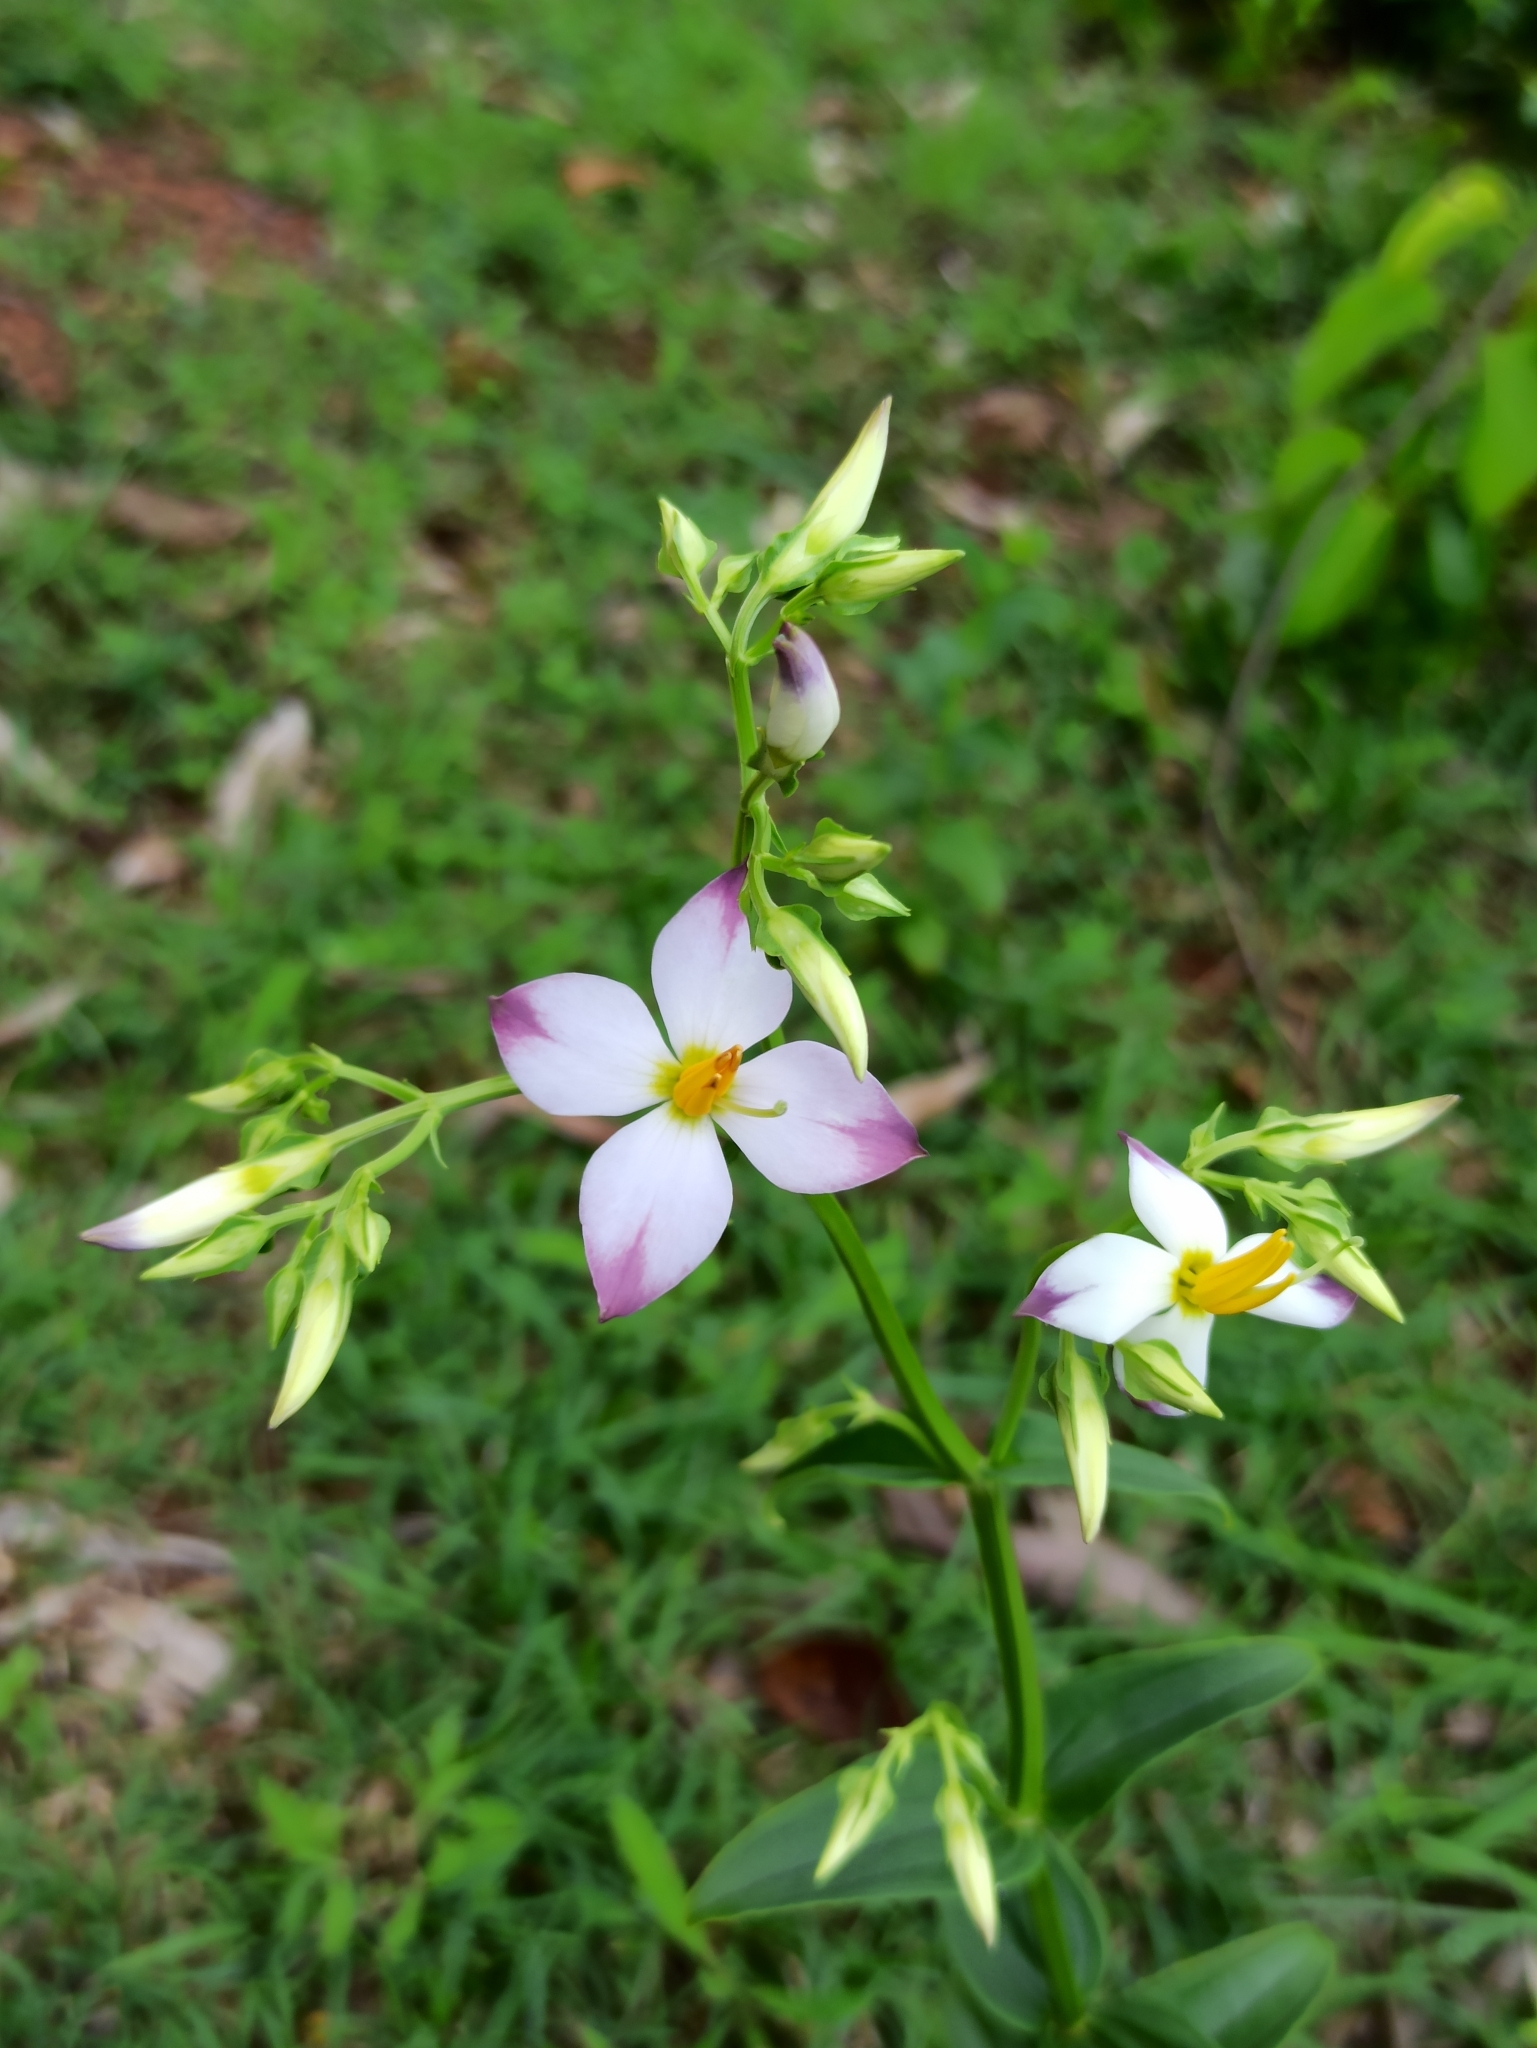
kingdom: Plantae
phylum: Tracheophyta
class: Magnoliopsida
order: Gentianales
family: Gentianaceae
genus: Exacum
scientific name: Exacum tetragonum
